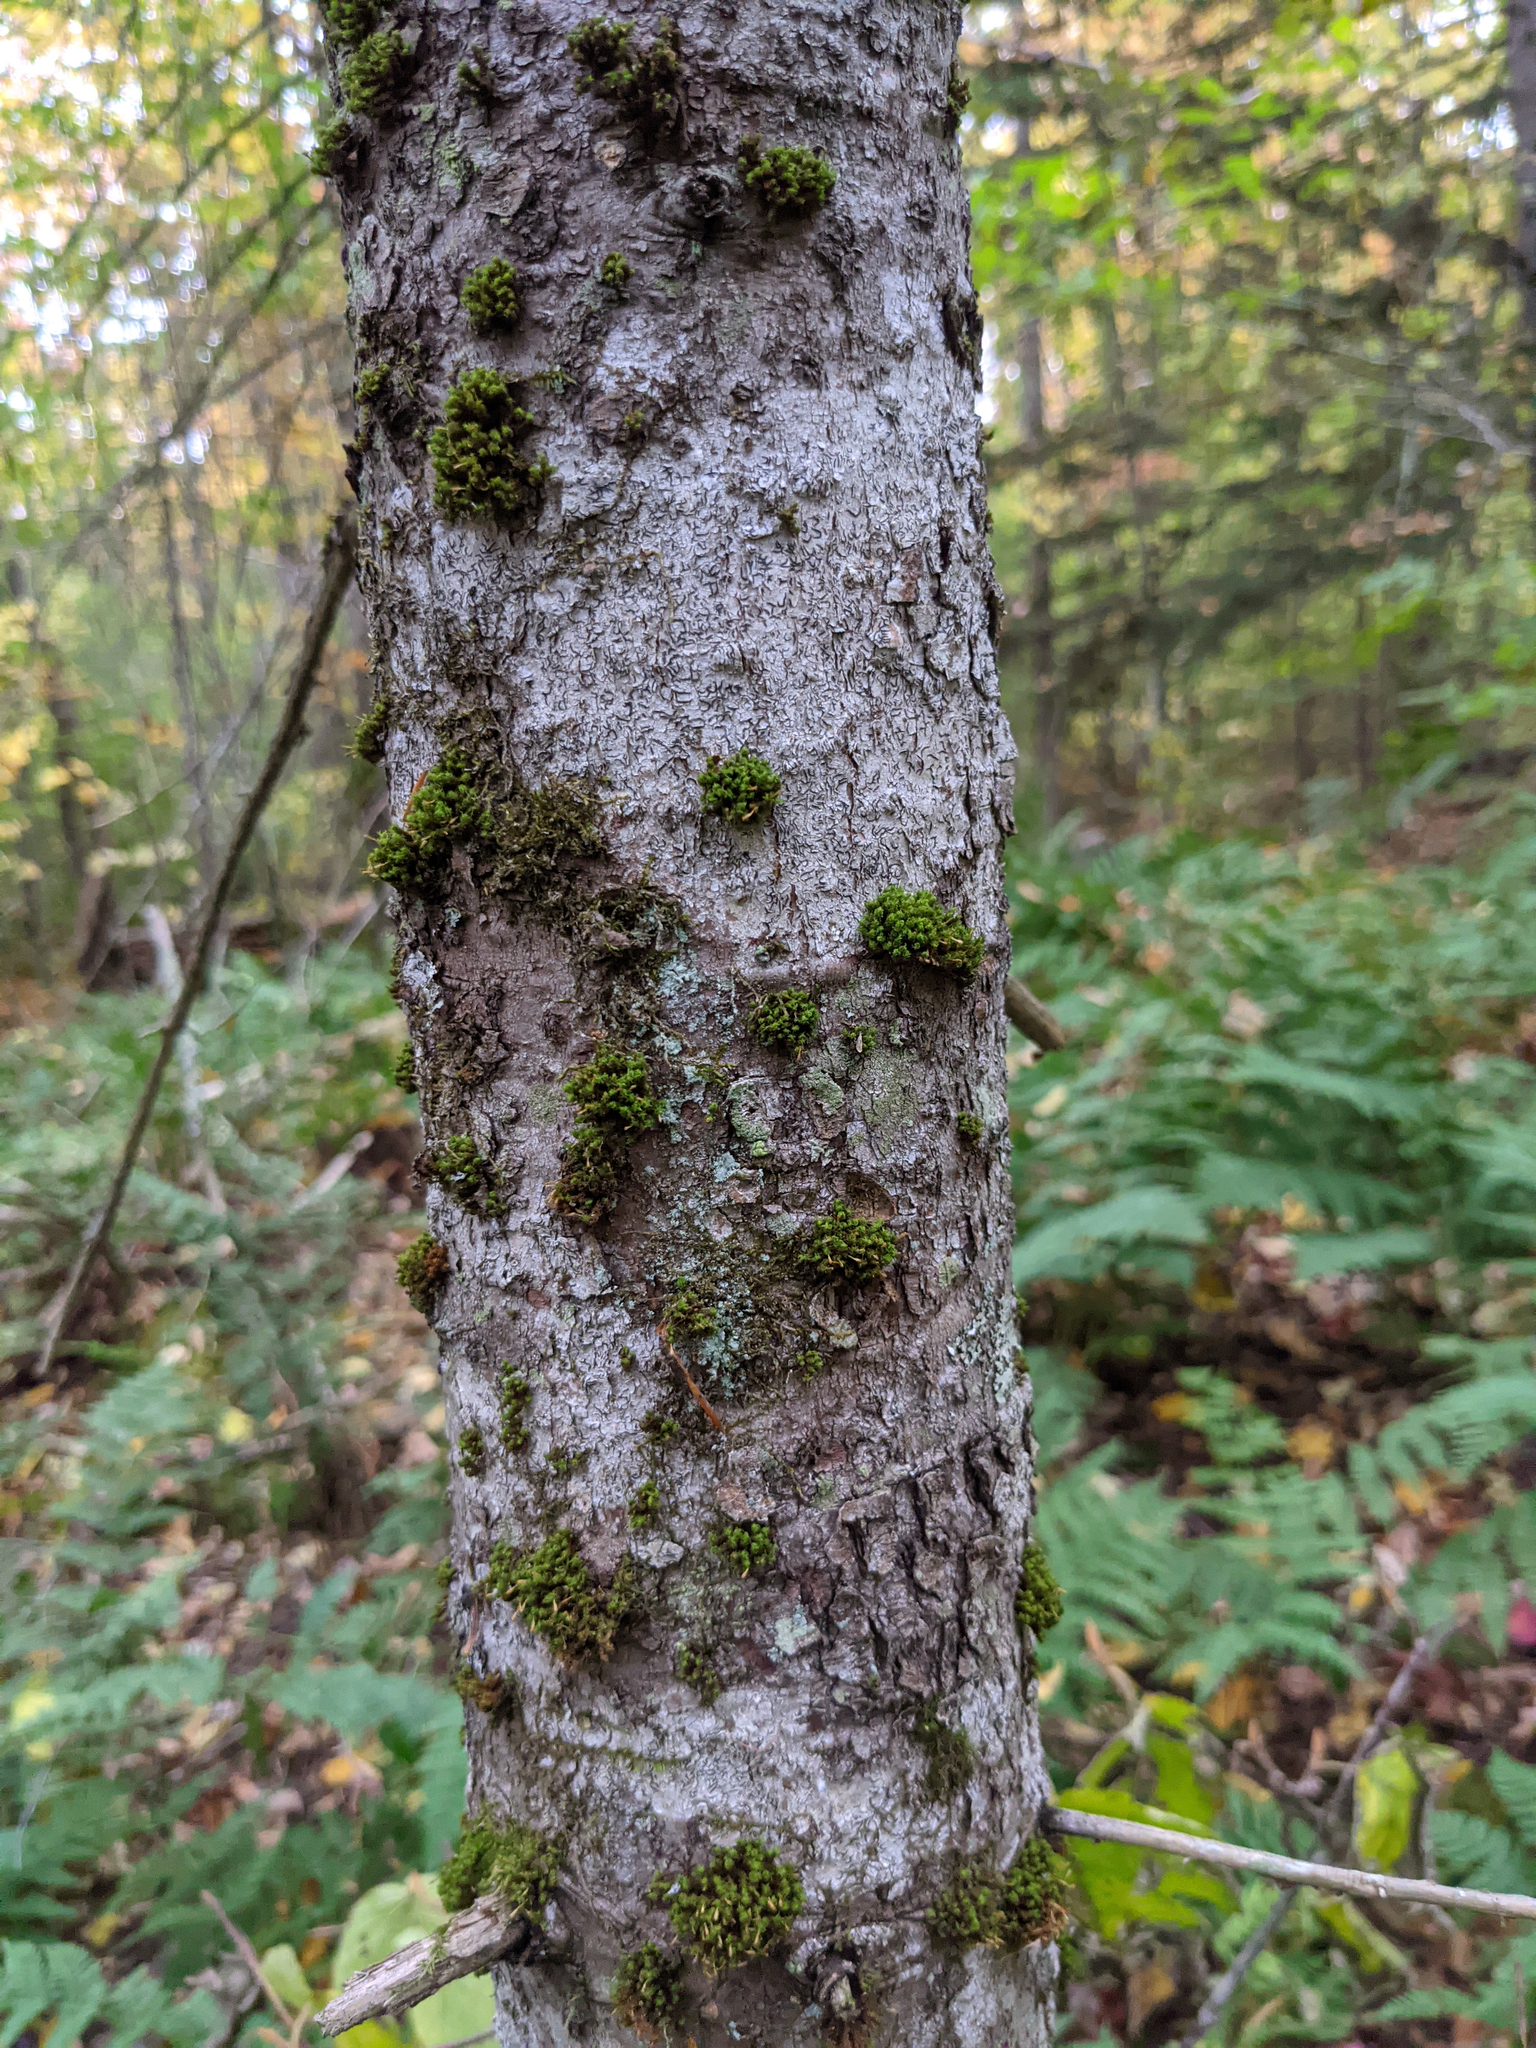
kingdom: Plantae
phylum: Bryophyta
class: Bryopsida
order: Orthotrichales
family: Orthotrichaceae
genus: Ulota
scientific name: Ulota crispa
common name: Crisped pincushion moss
